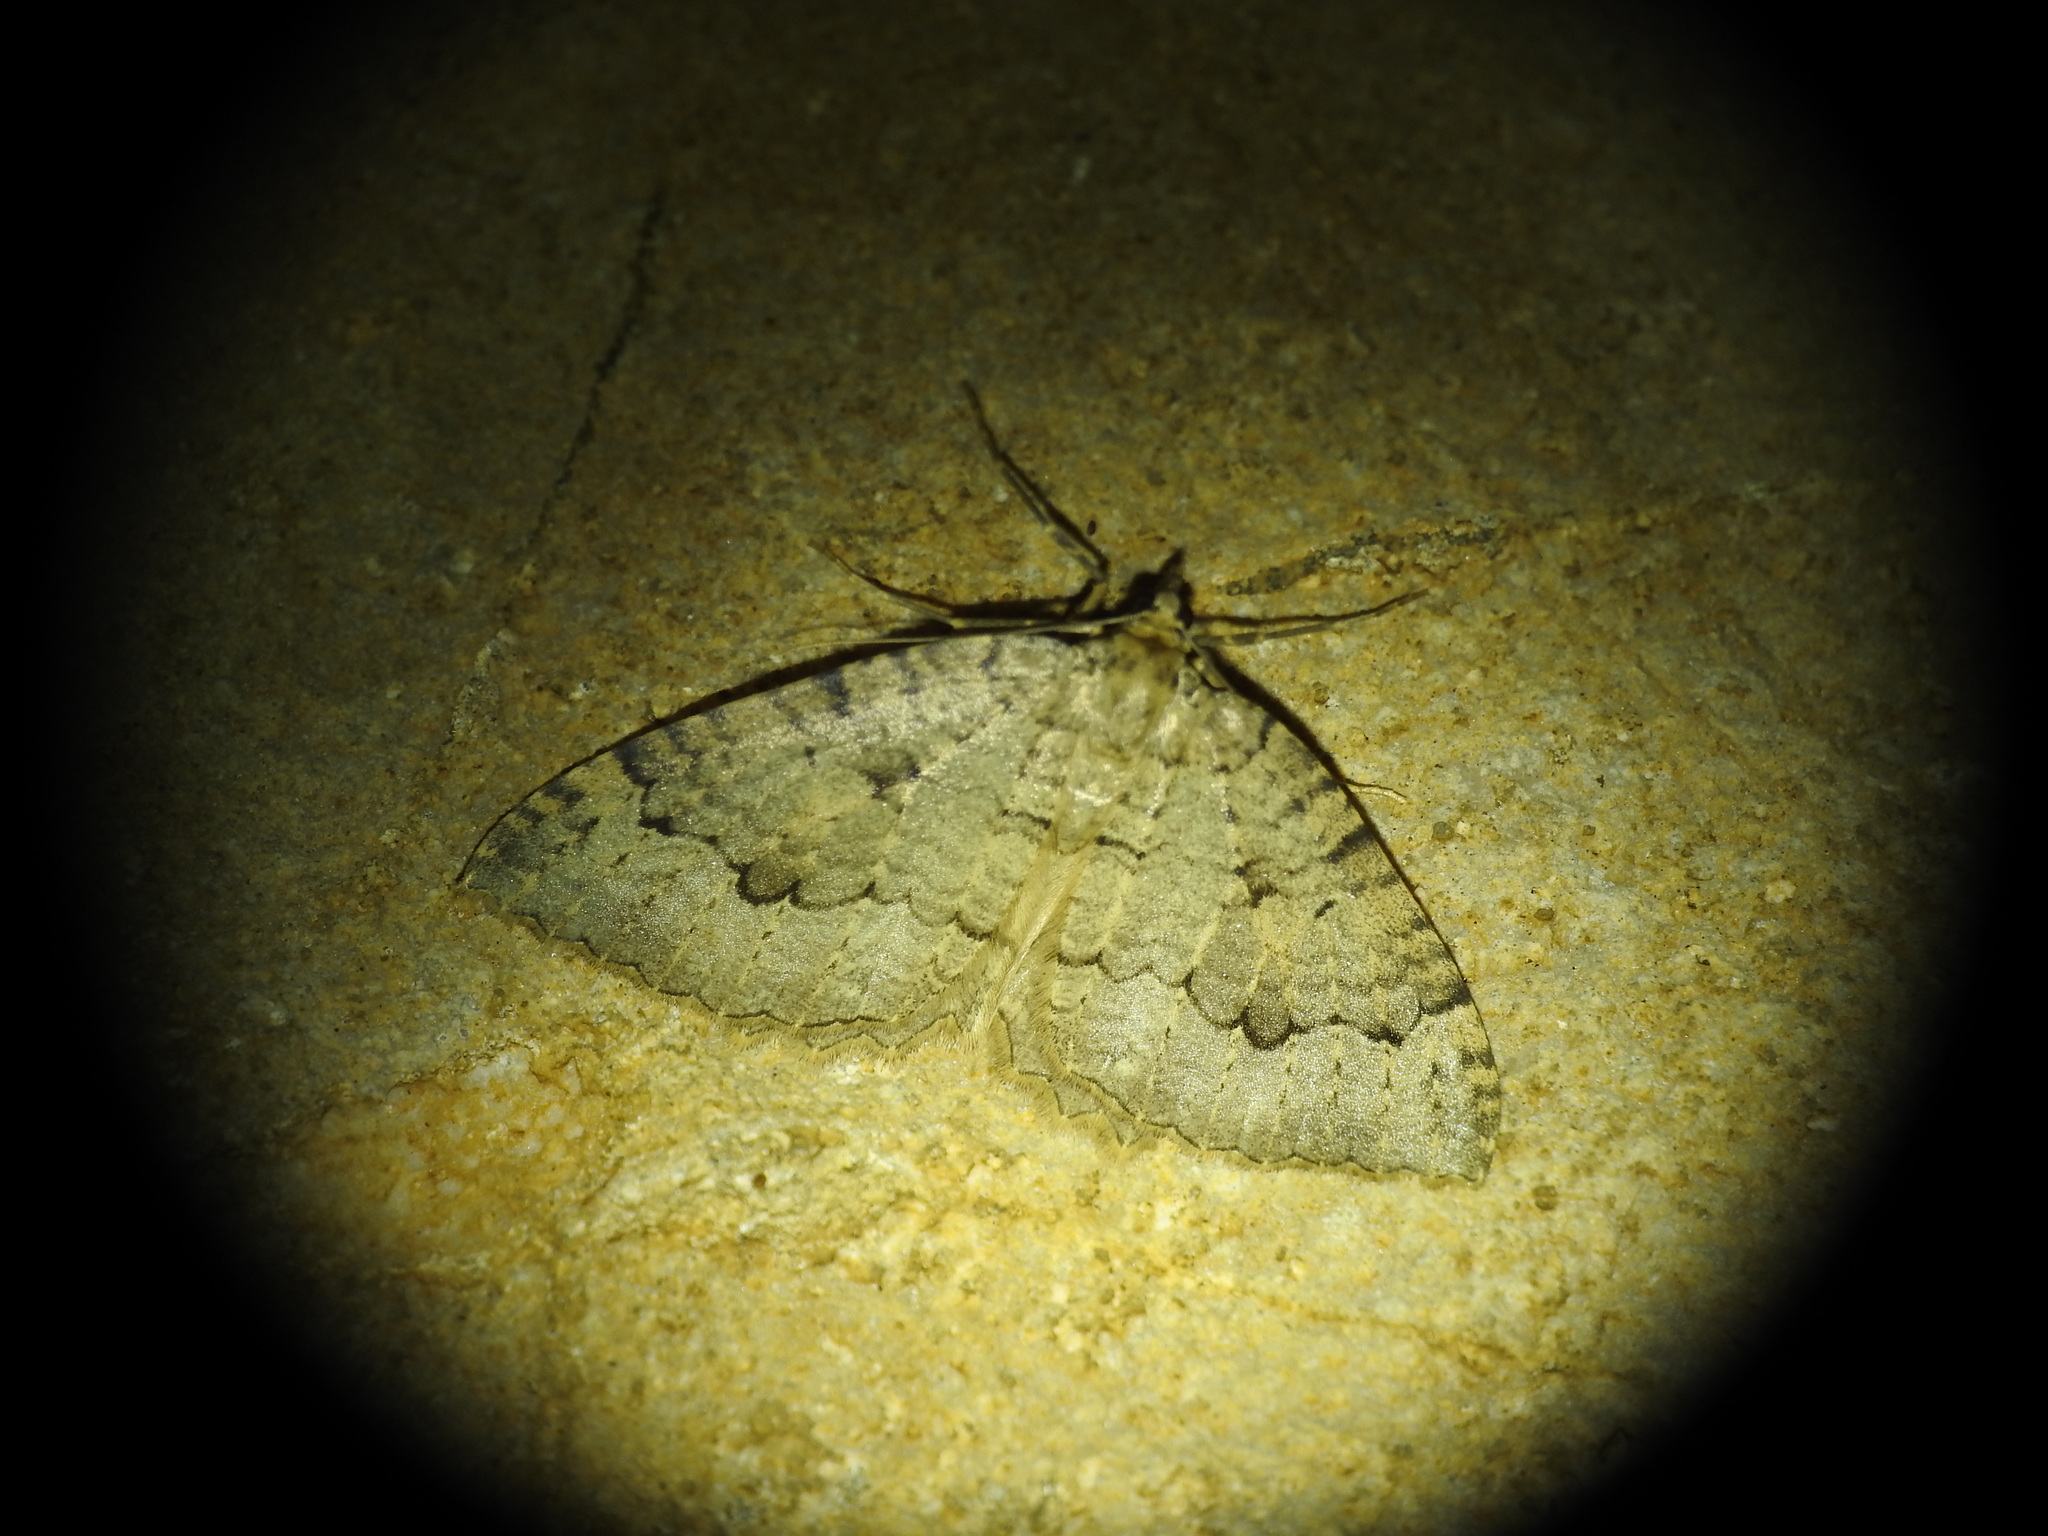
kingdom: Animalia
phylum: Arthropoda
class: Insecta
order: Lepidoptera
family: Geometridae
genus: Triphosa
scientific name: Triphosa dubitata
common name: Tissue
